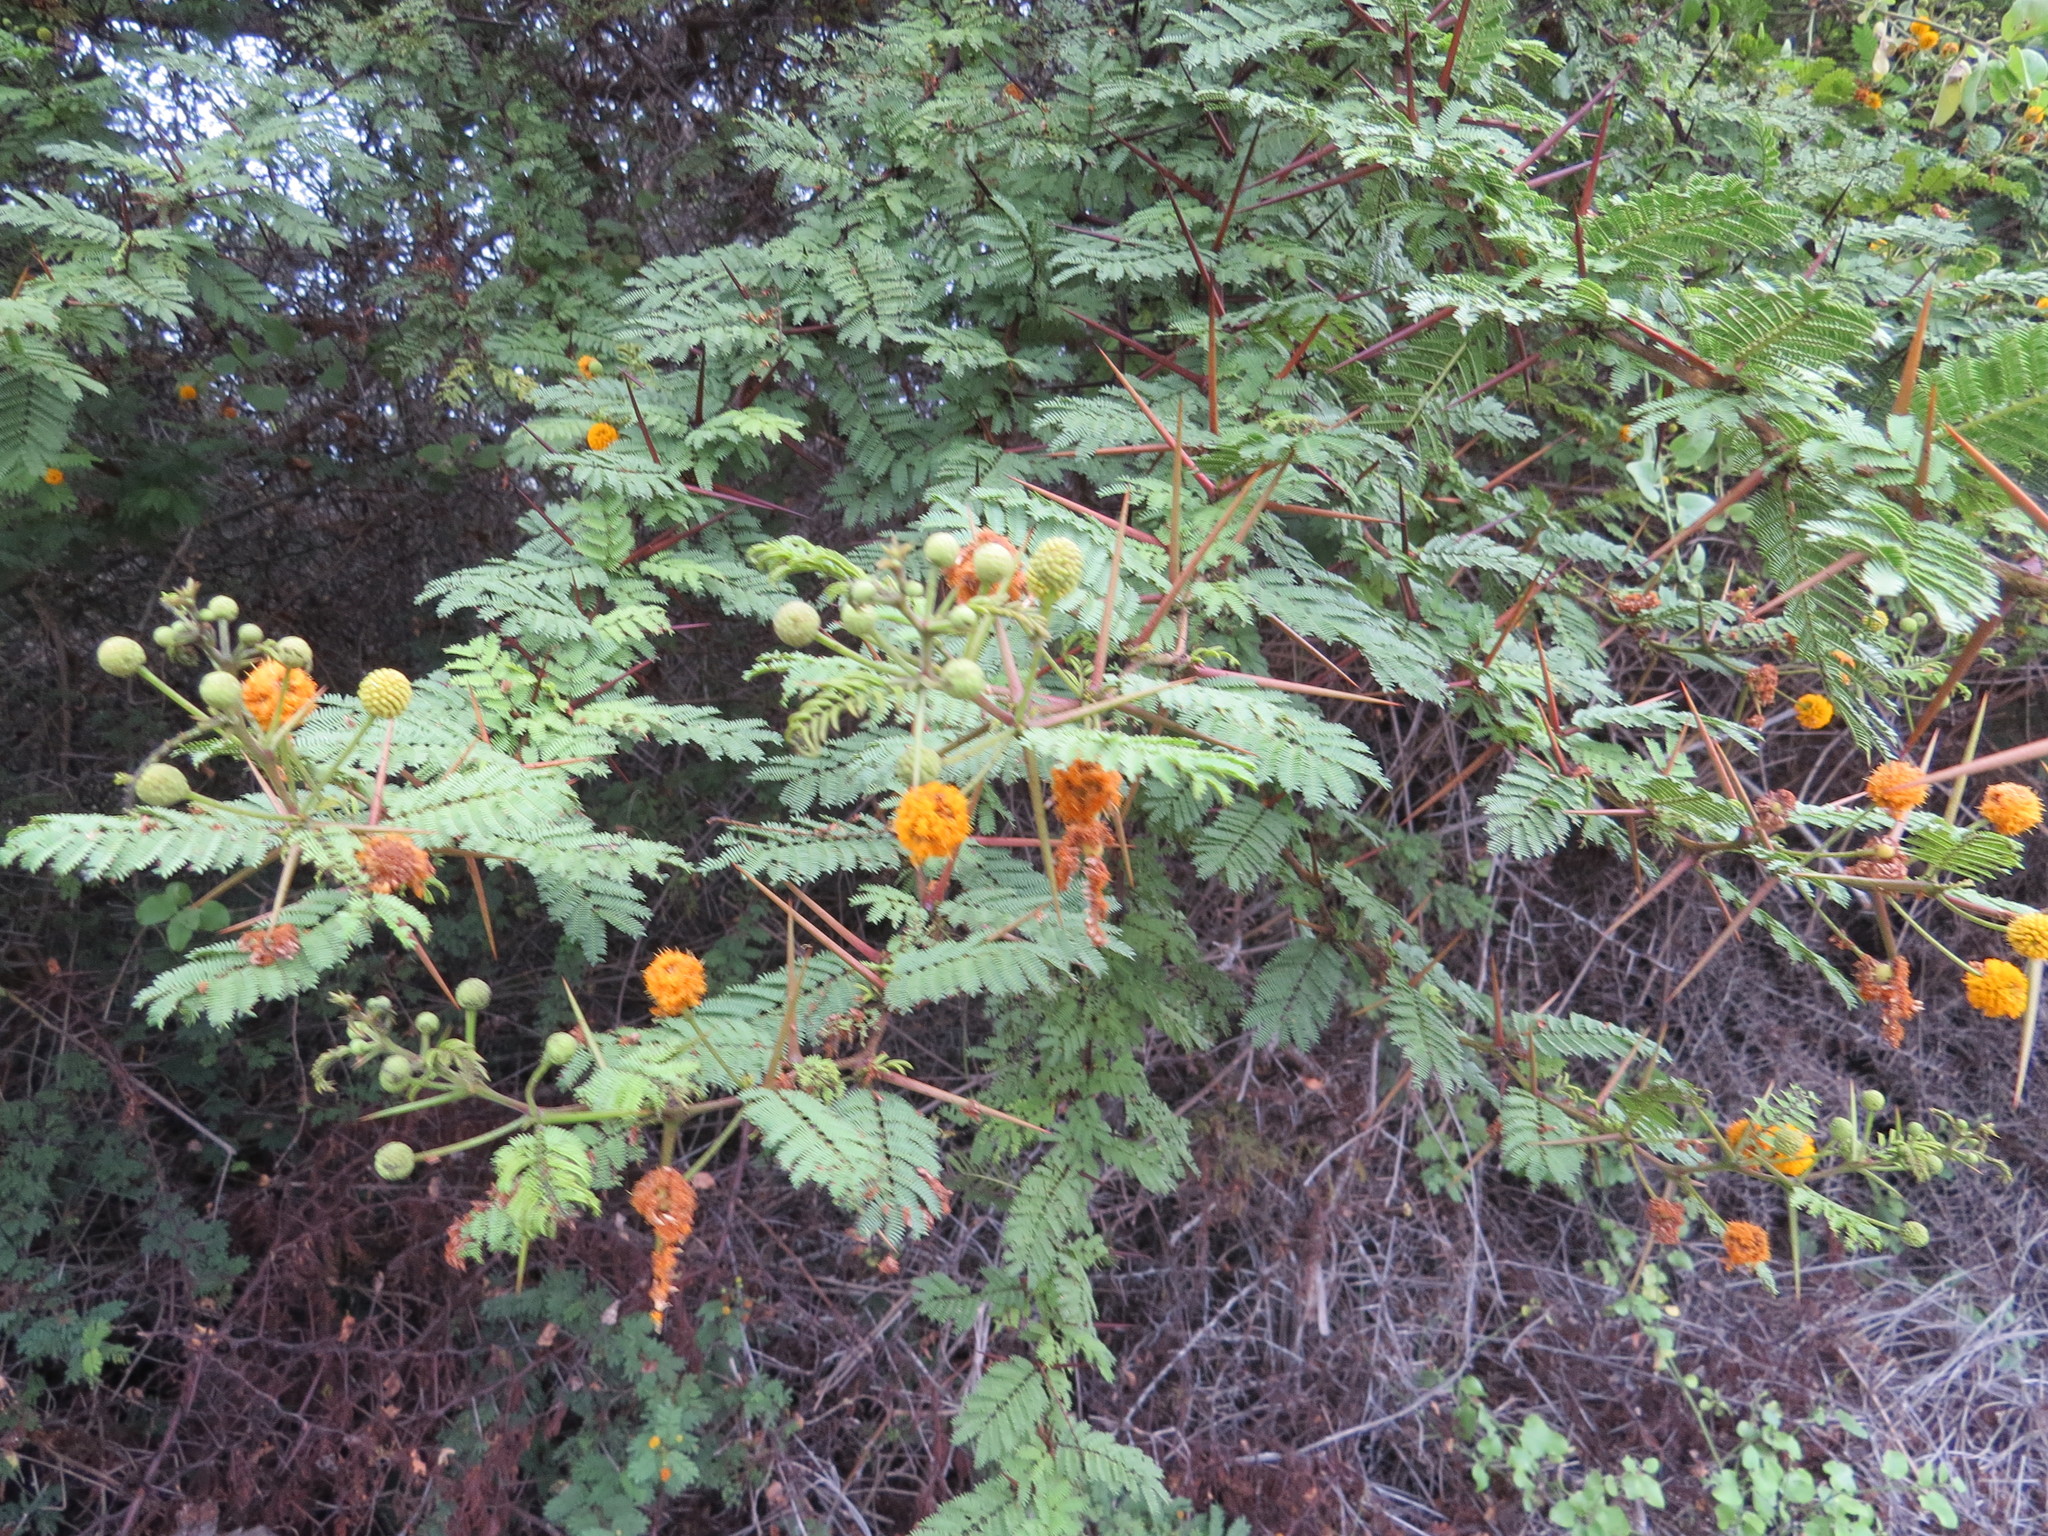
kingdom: Plantae
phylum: Tracheophyta
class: Magnoliopsida
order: Fabales
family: Fabaceae
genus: Vachellia
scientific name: Vachellia macracantha
